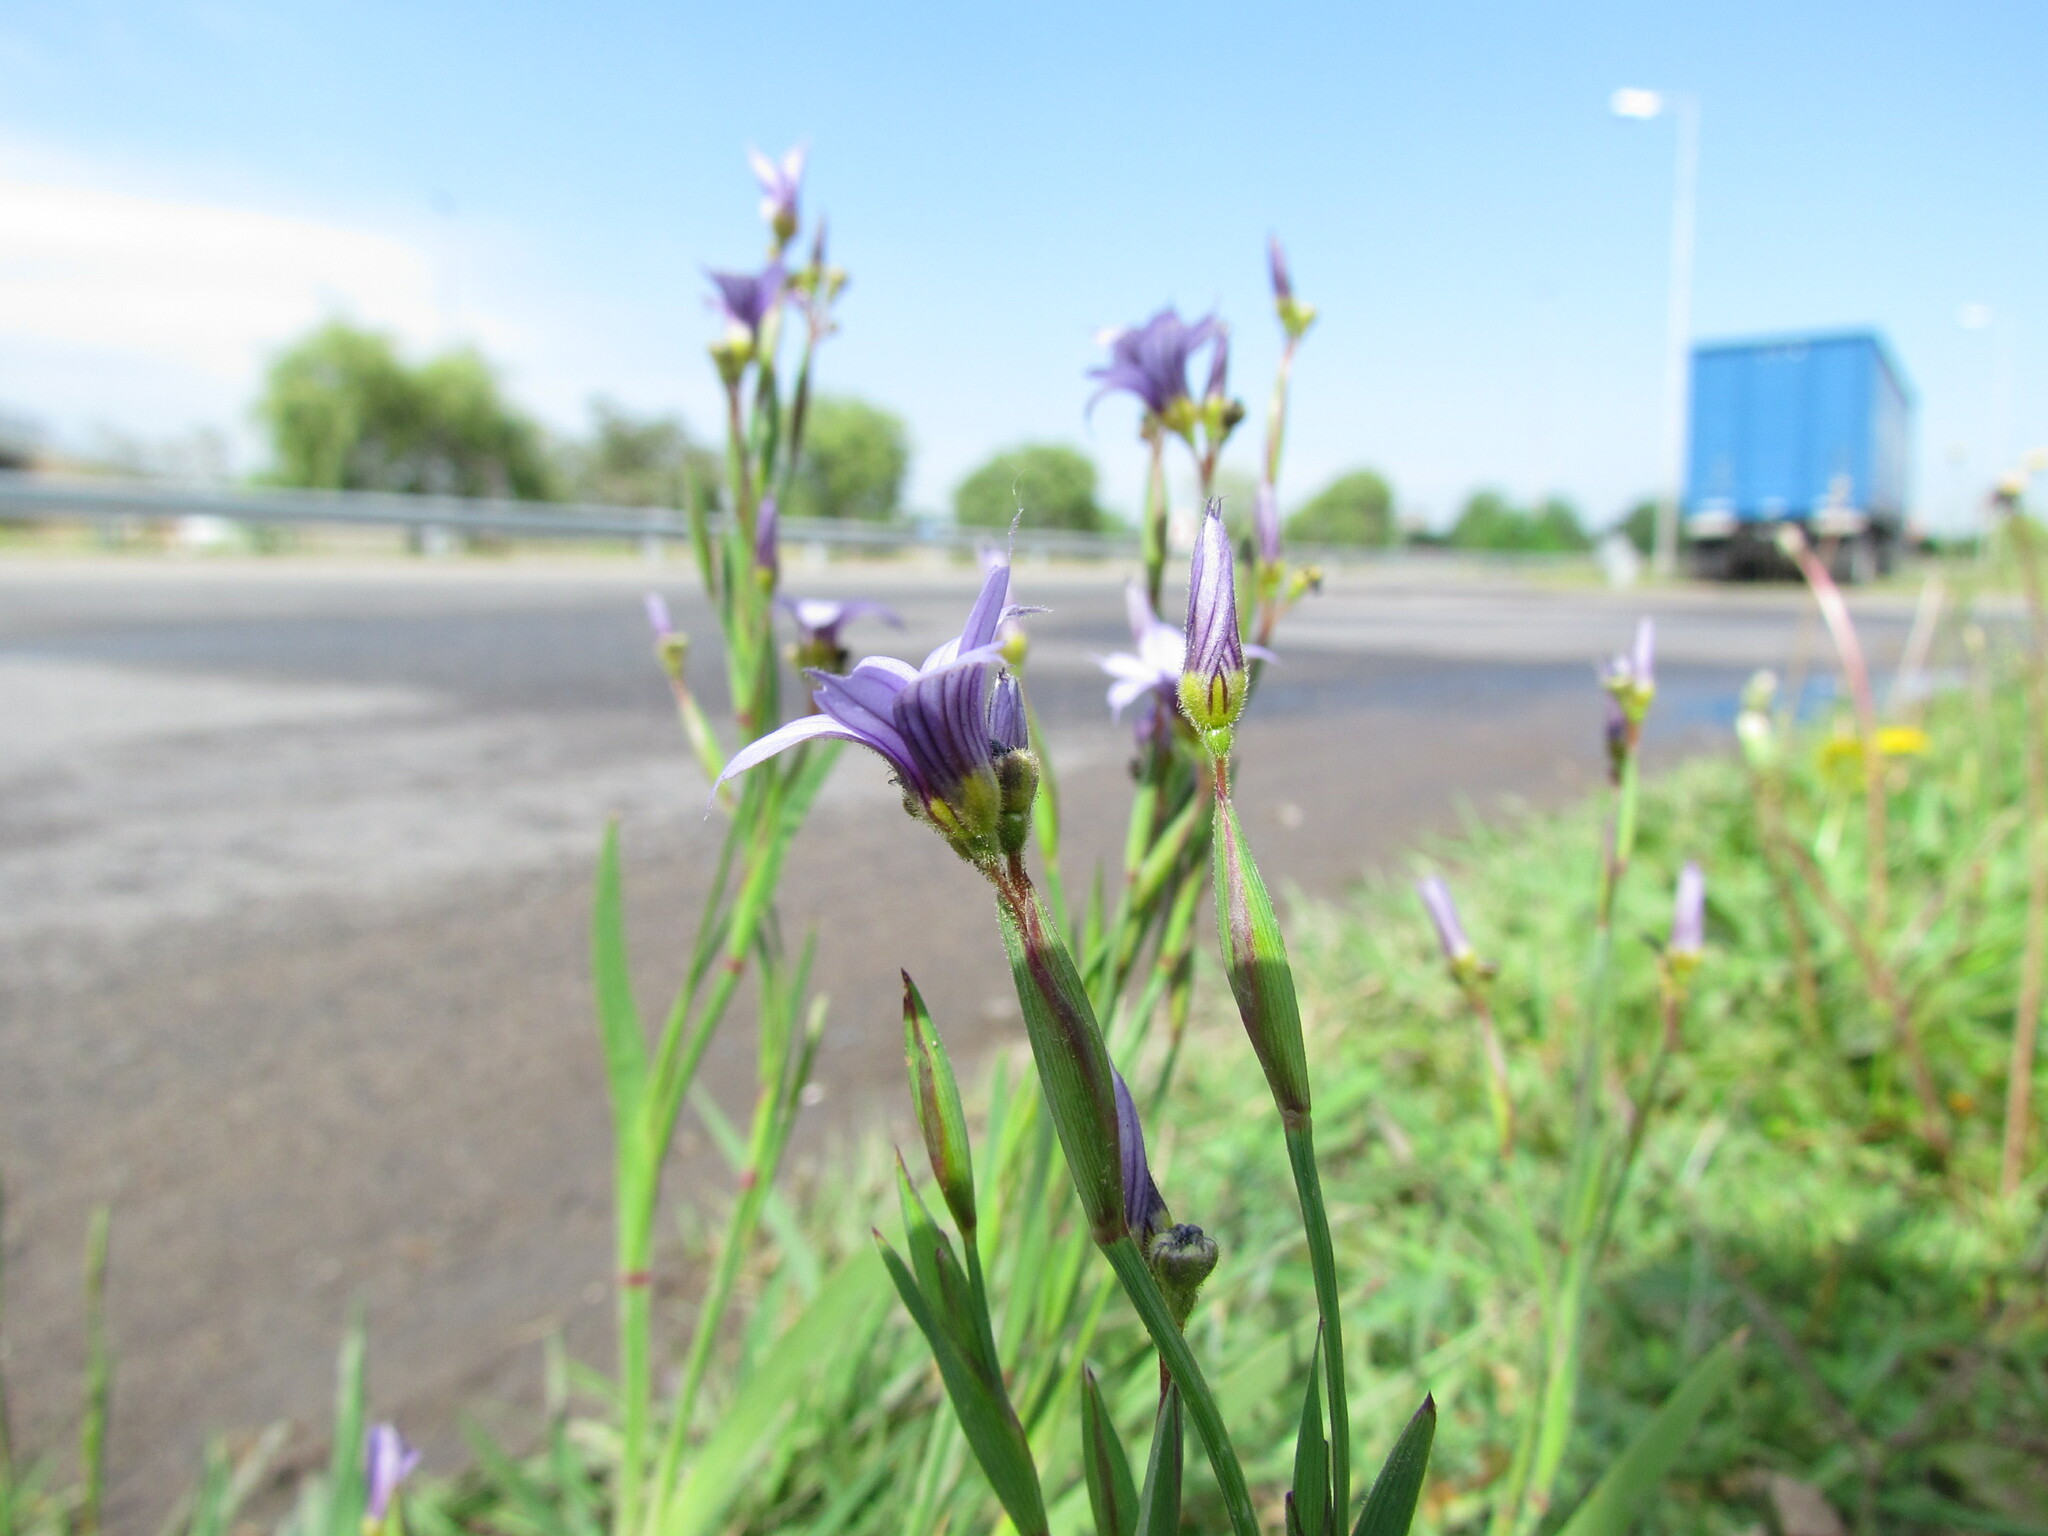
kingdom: Plantae
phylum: Tracheophyta
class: Liliopsida
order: Asparagales
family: Iridaceae
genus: Sisyrinchium
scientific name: Sisyrinchium platense
